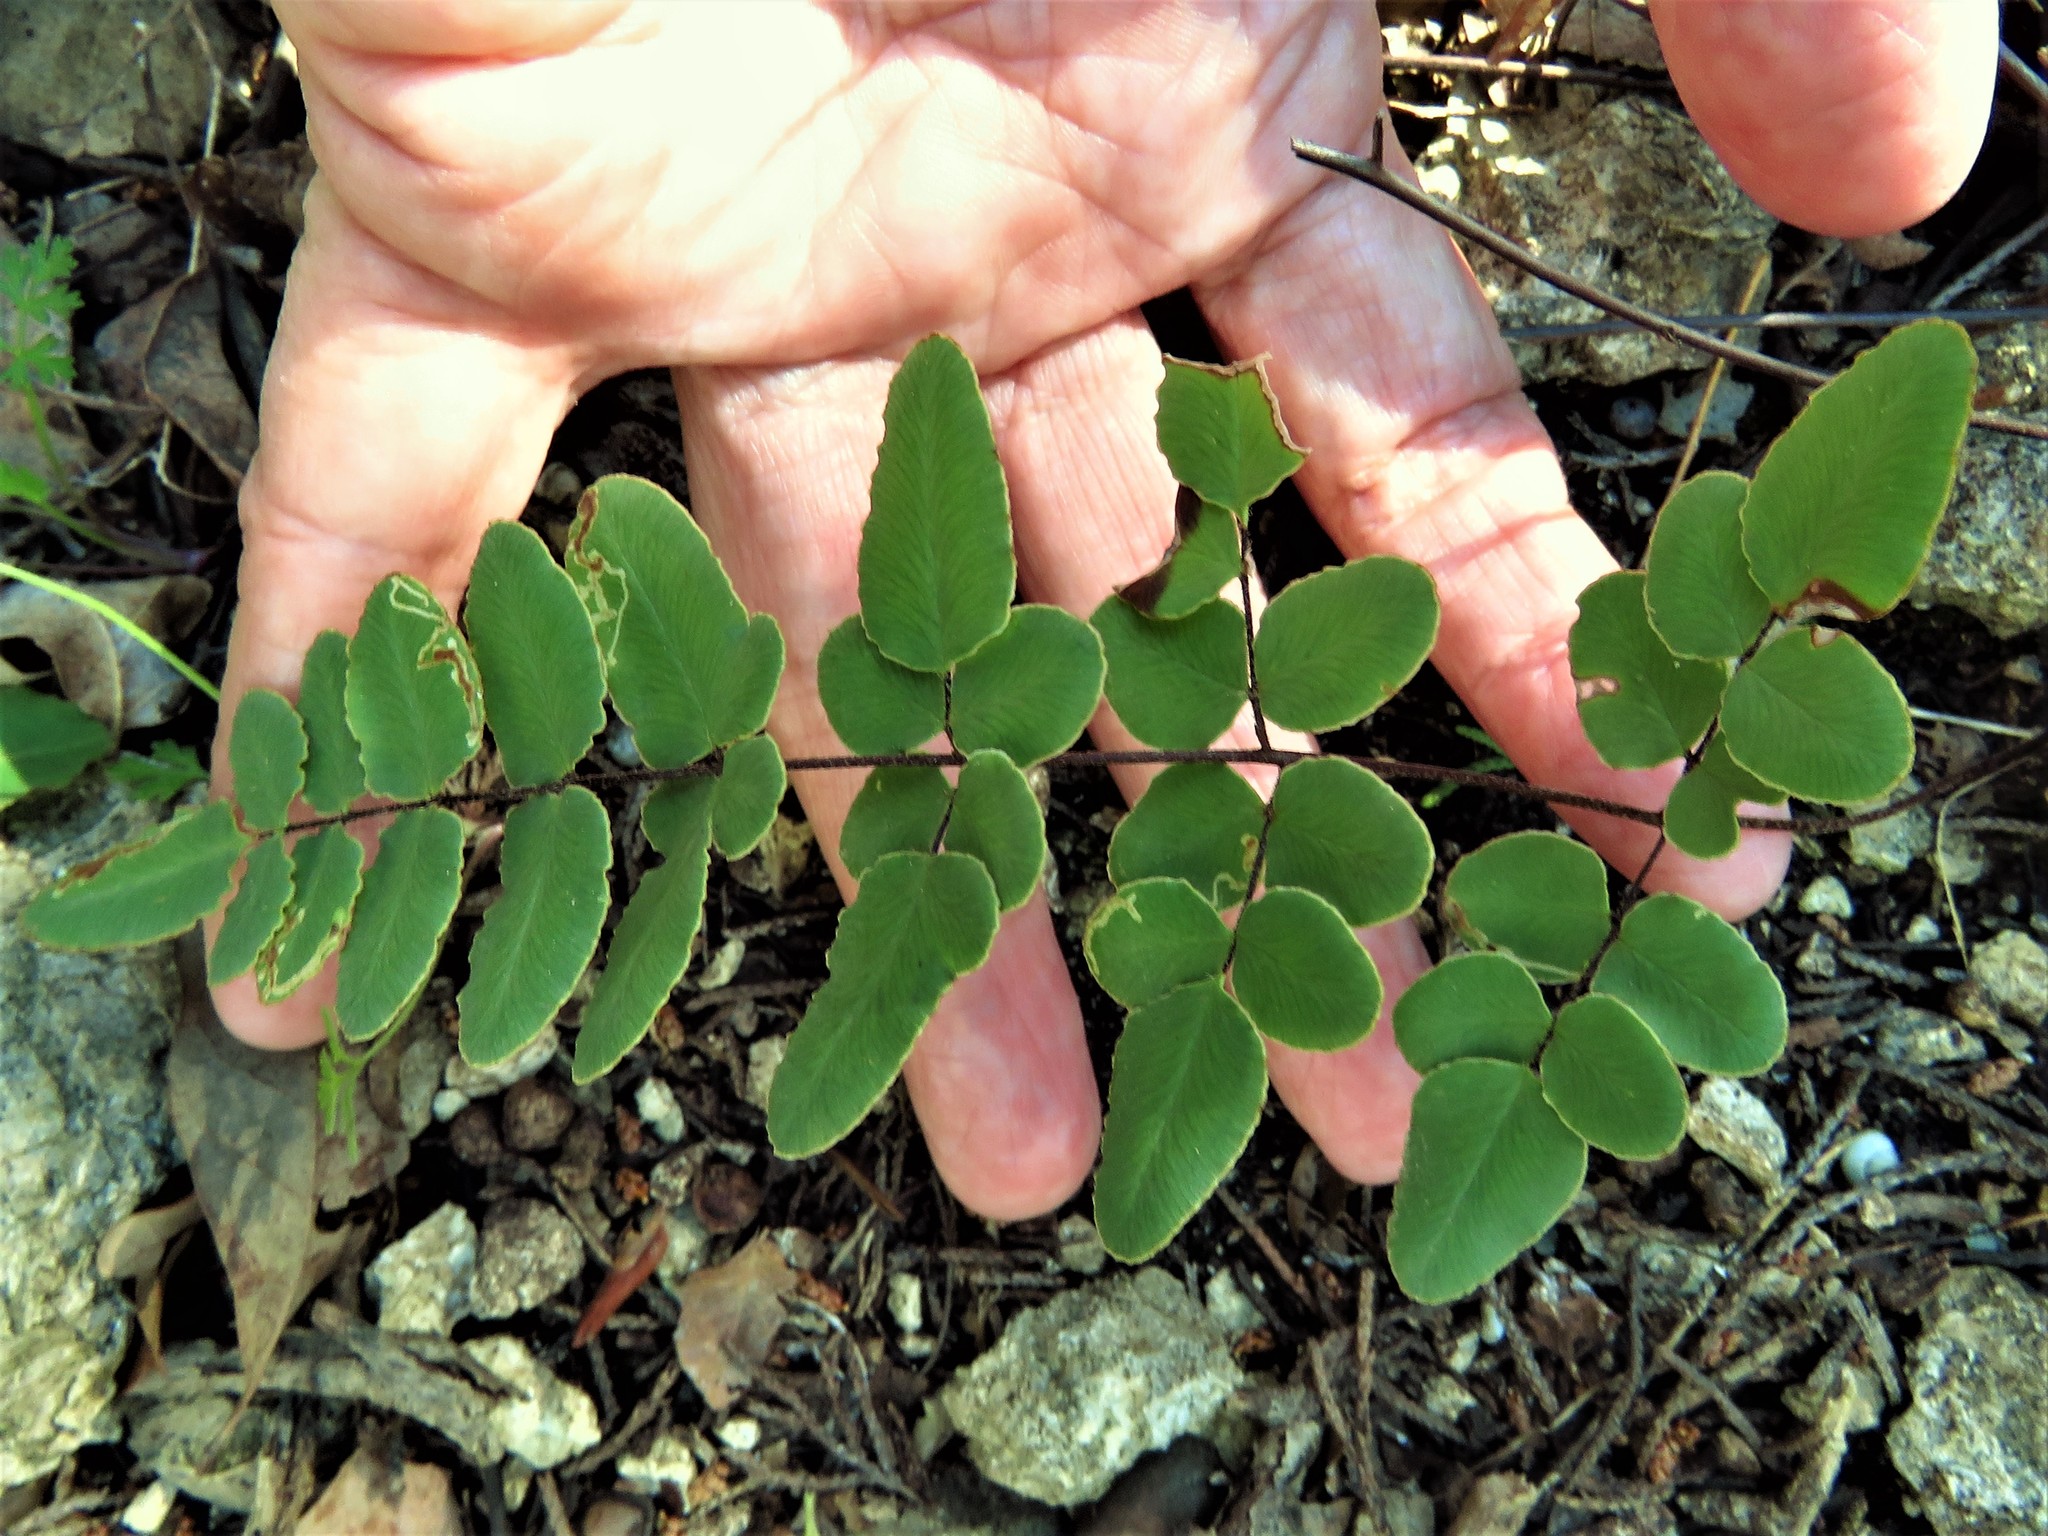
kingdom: Plantae
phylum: Tracheophyta
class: Polypodiopsida
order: Polypodiales
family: Pteridaceae
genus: Pellaea
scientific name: Pellaea atropurpurea
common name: Hairy cliffbrake
